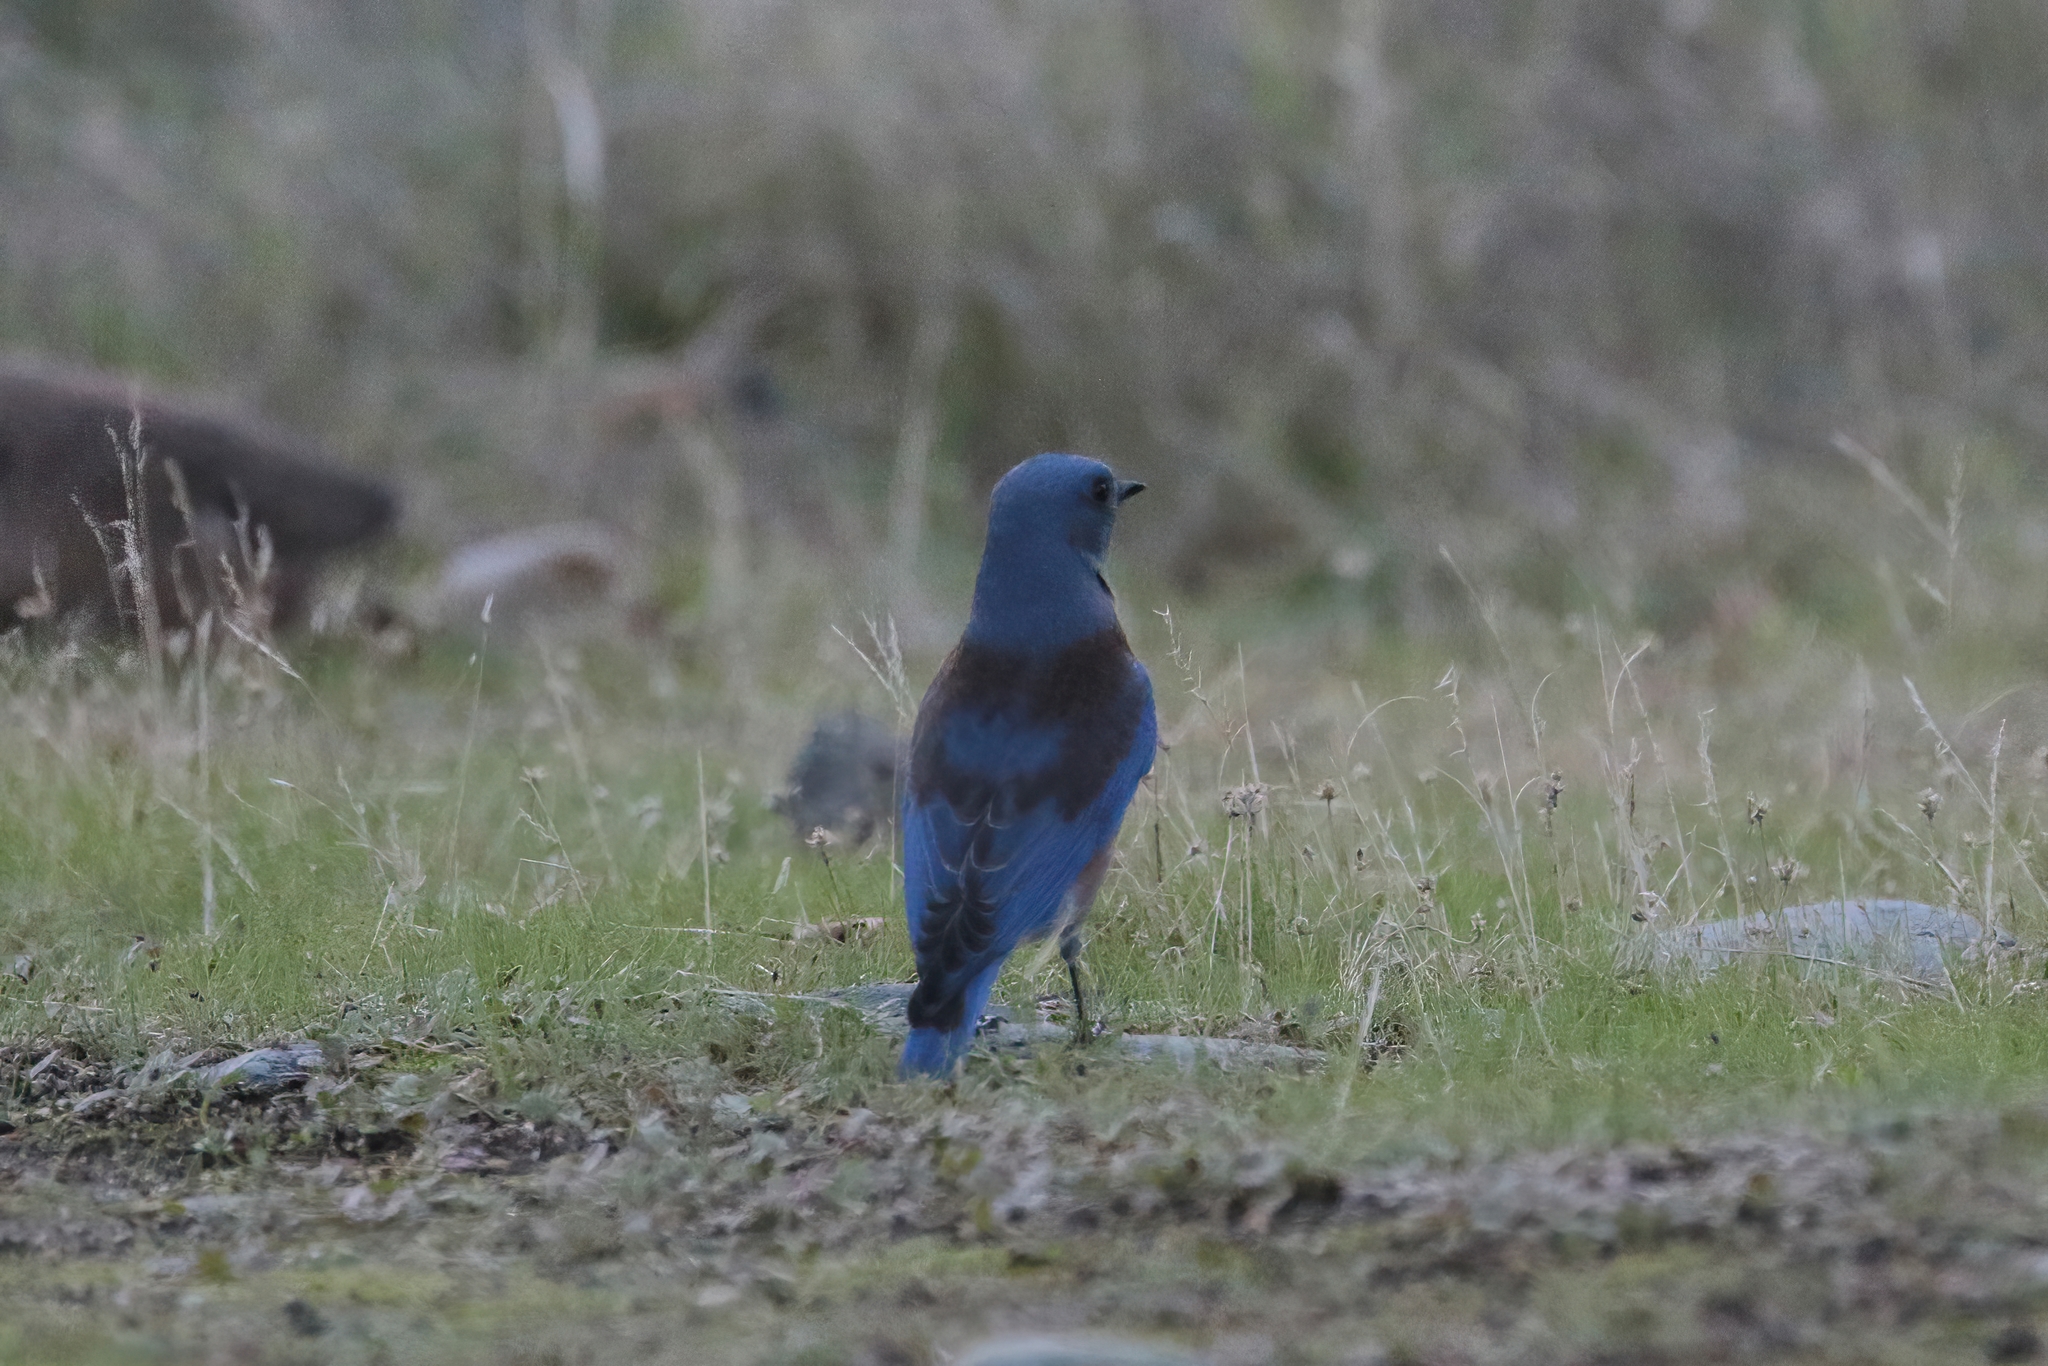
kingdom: Animalia
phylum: Chordata
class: Aves
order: Passeriformes
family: Turdidae
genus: Sialia
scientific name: Sialia mexicana
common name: Western bluebird
